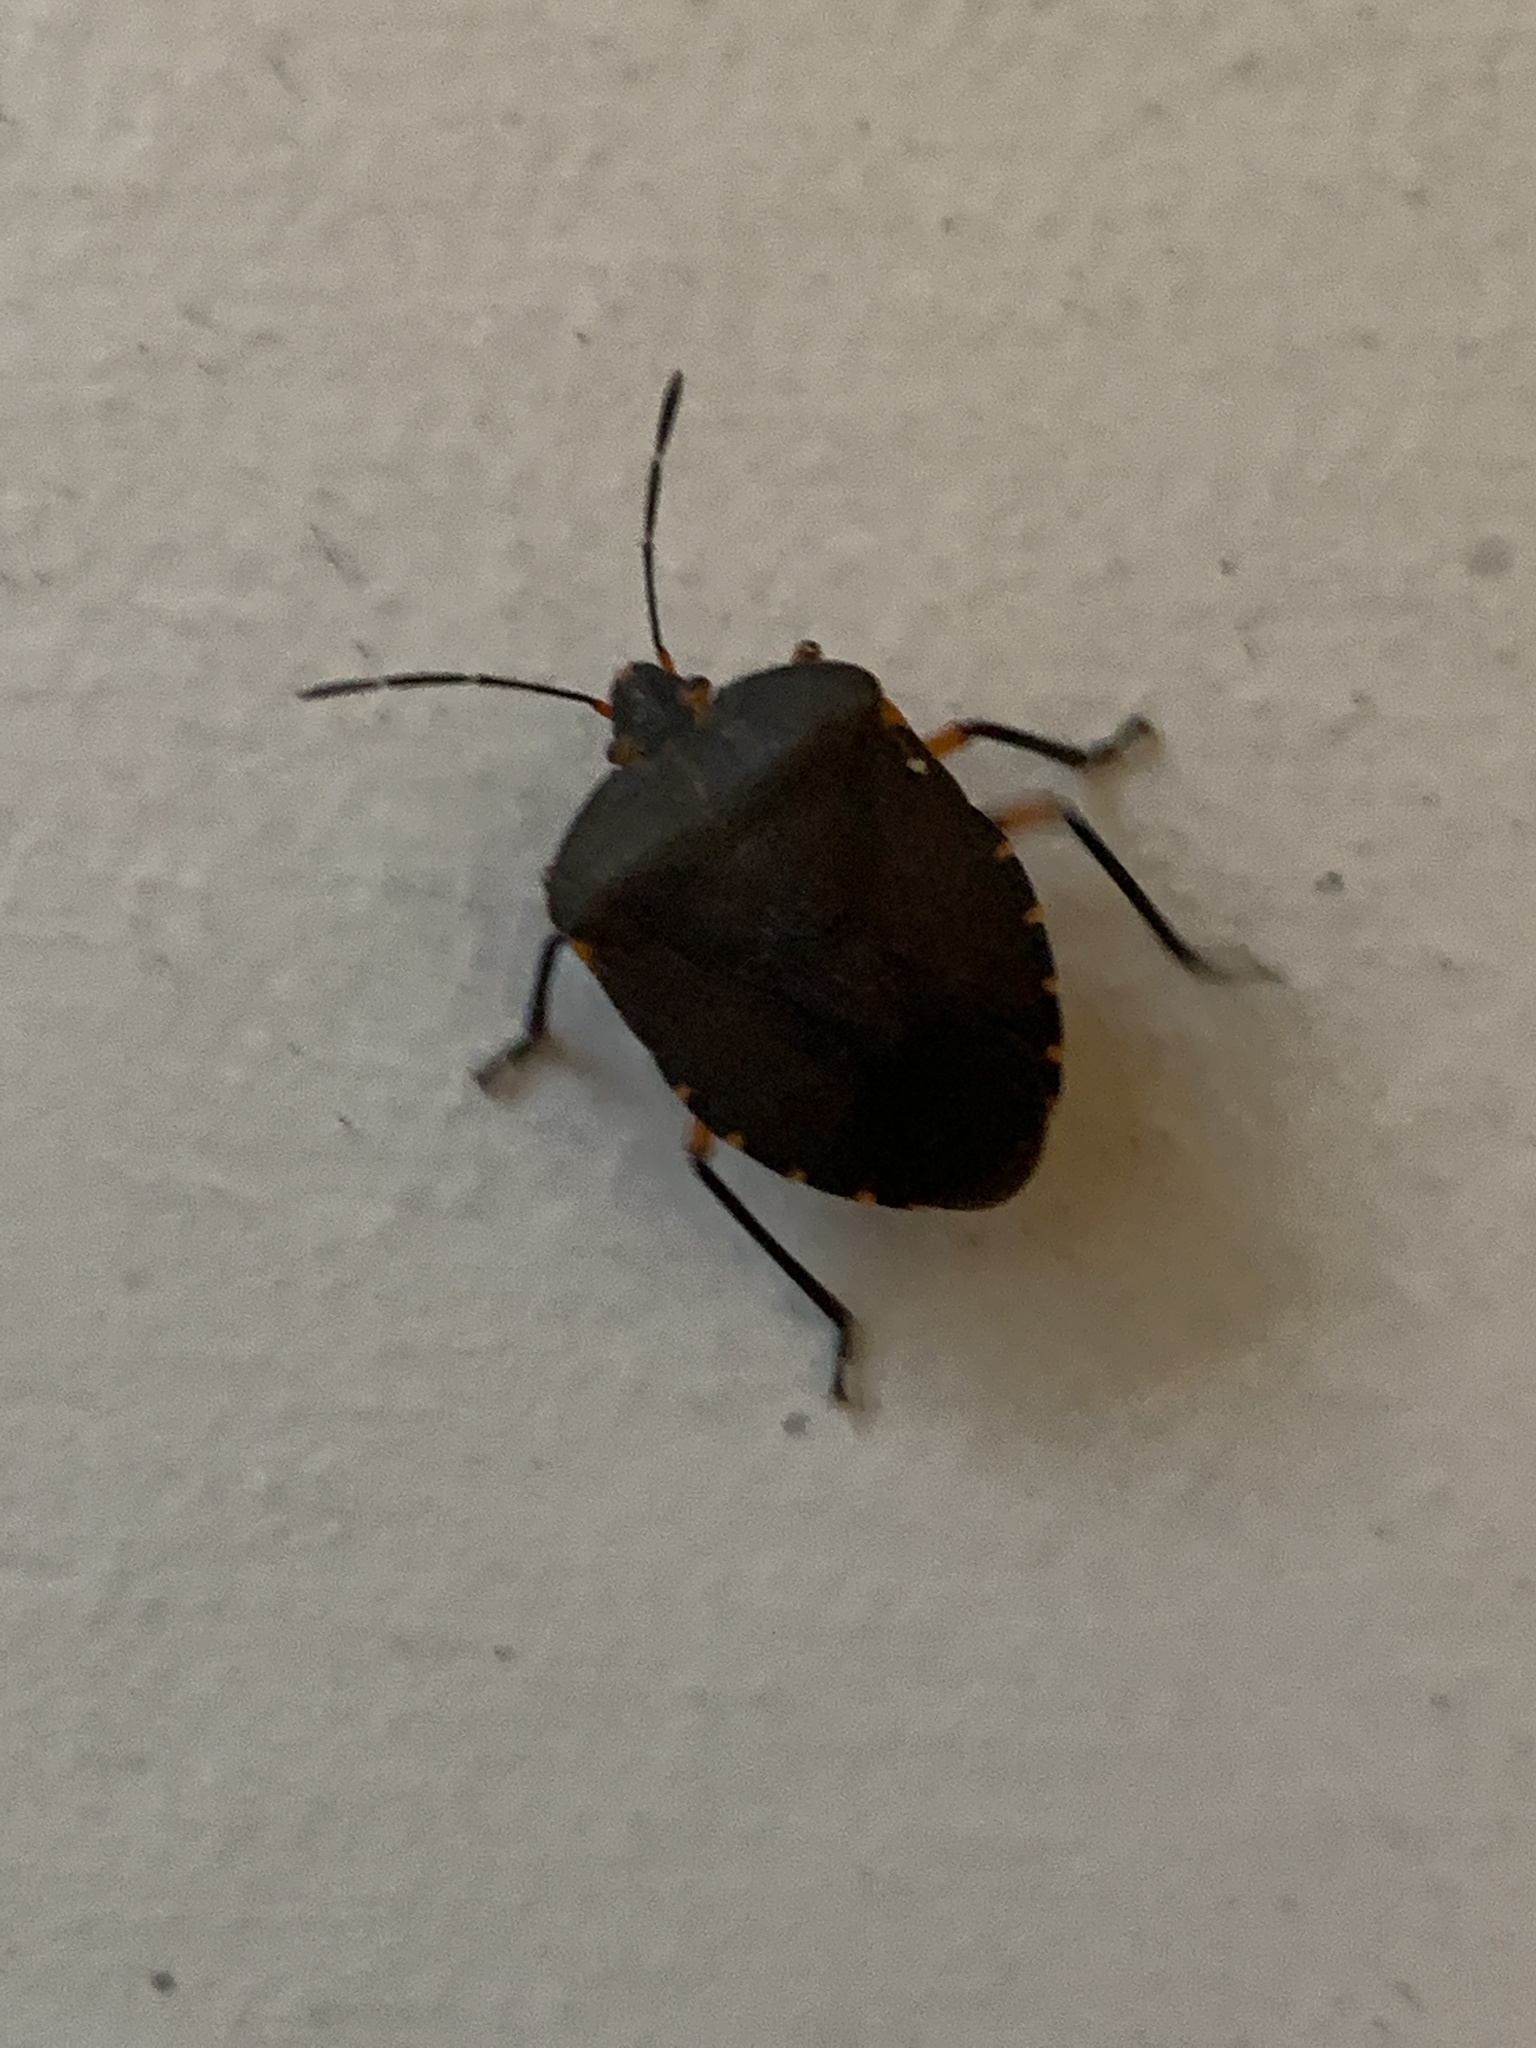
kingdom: Animalia
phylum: Arthropoda
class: Insecta
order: Hemiptera
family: Pentatomidae
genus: Caura
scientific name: Caura rufiventris
